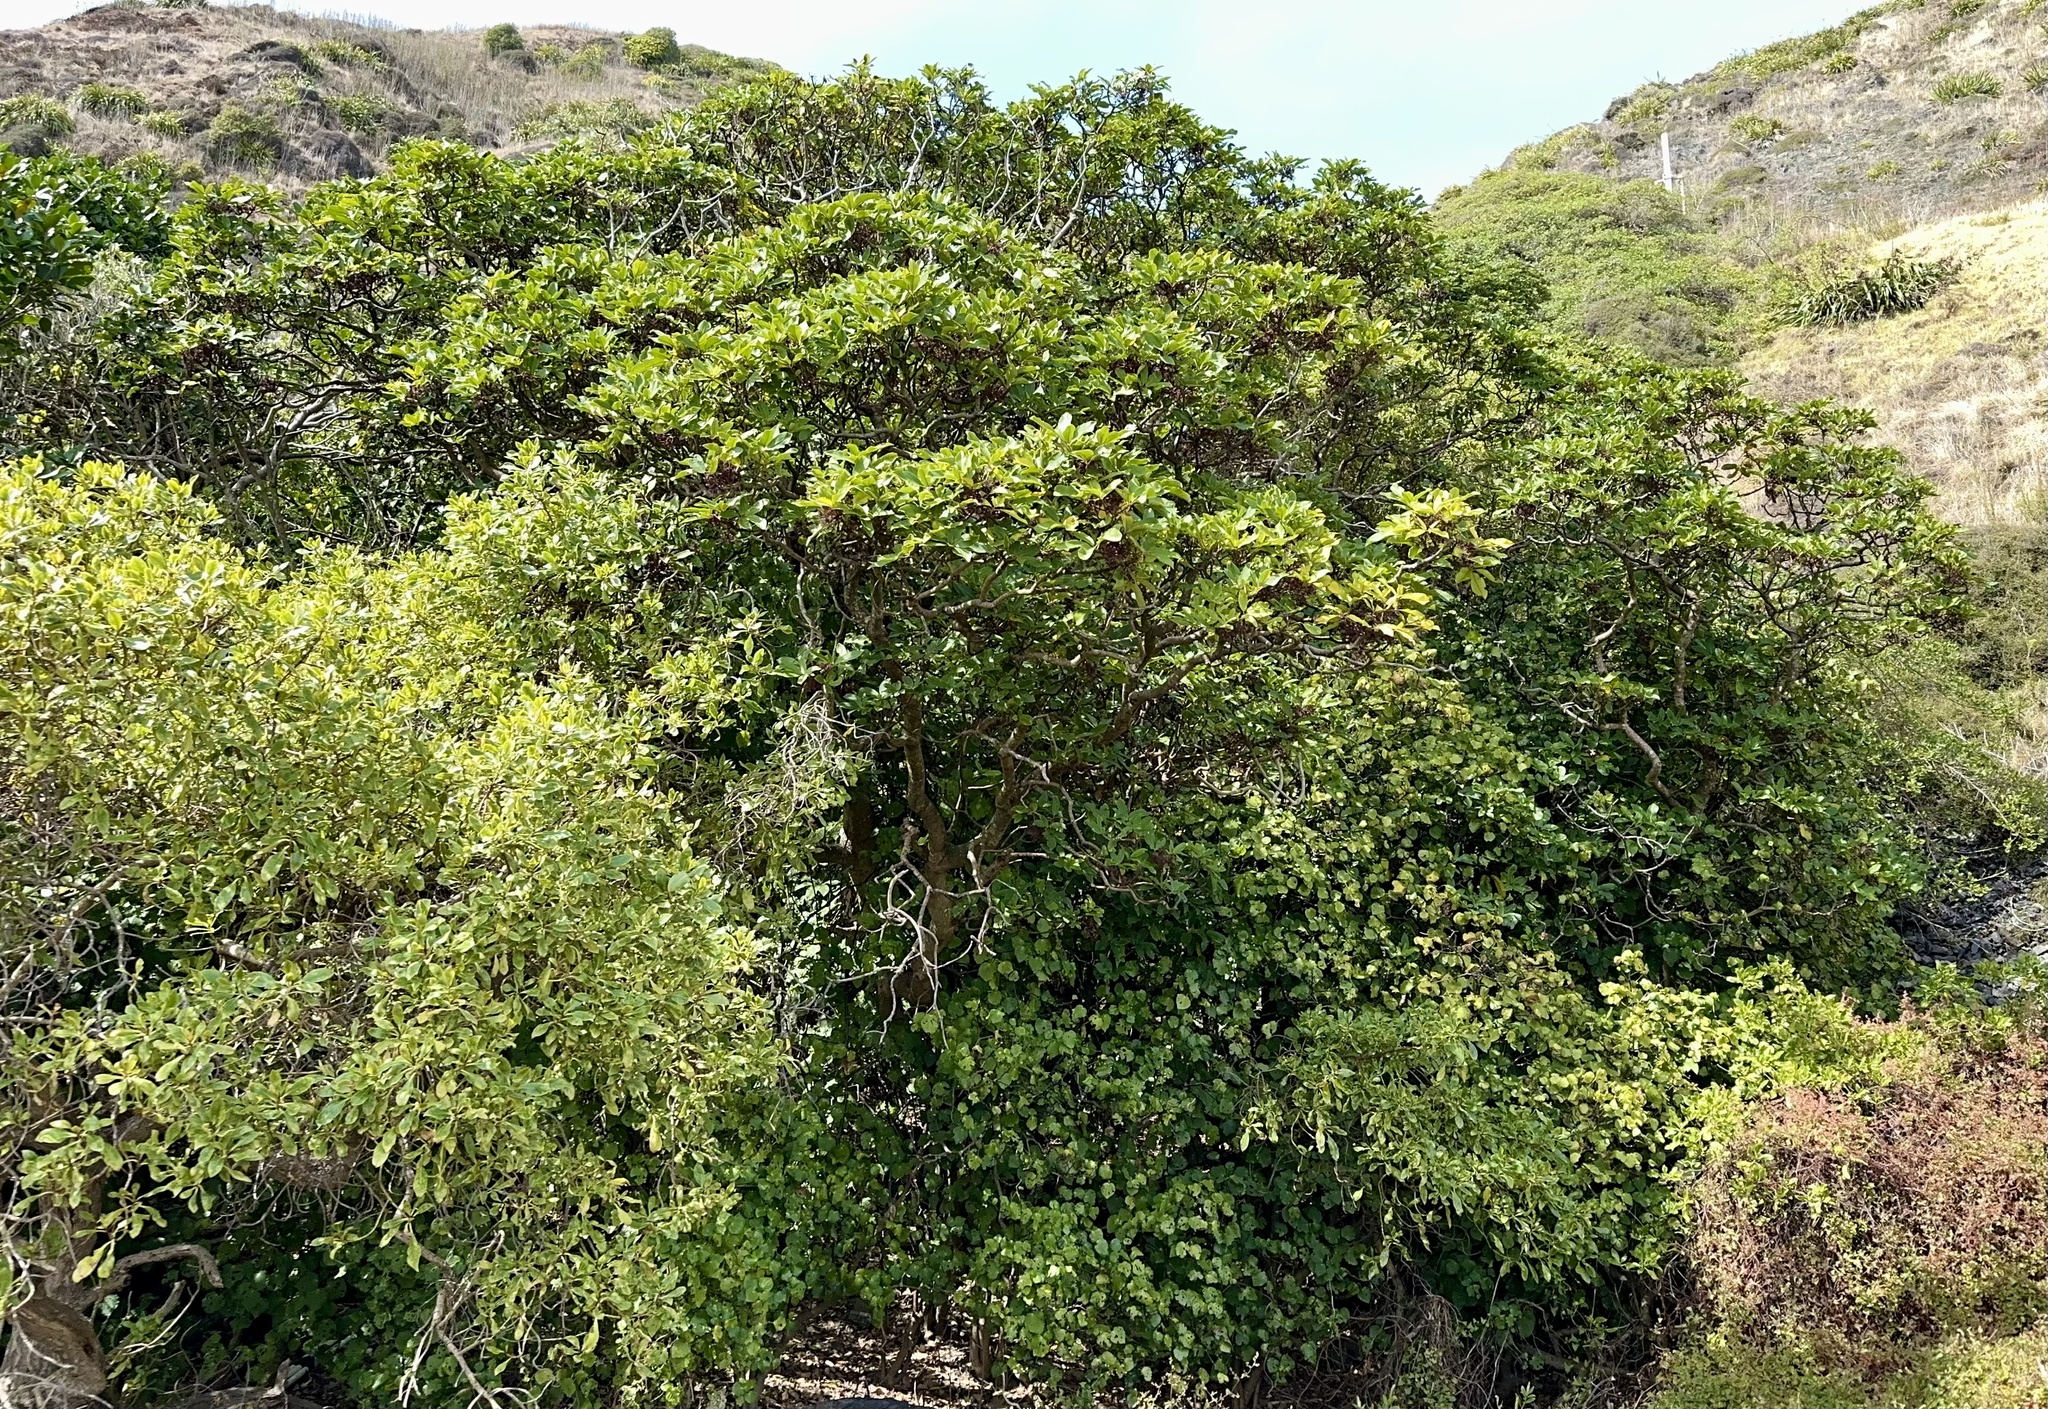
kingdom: Plantae
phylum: Tracheophyta
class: Magnoliopsida
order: Apiales
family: Araliaceae
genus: Neopanax
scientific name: Neopanax arboreus
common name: Five-fingers
